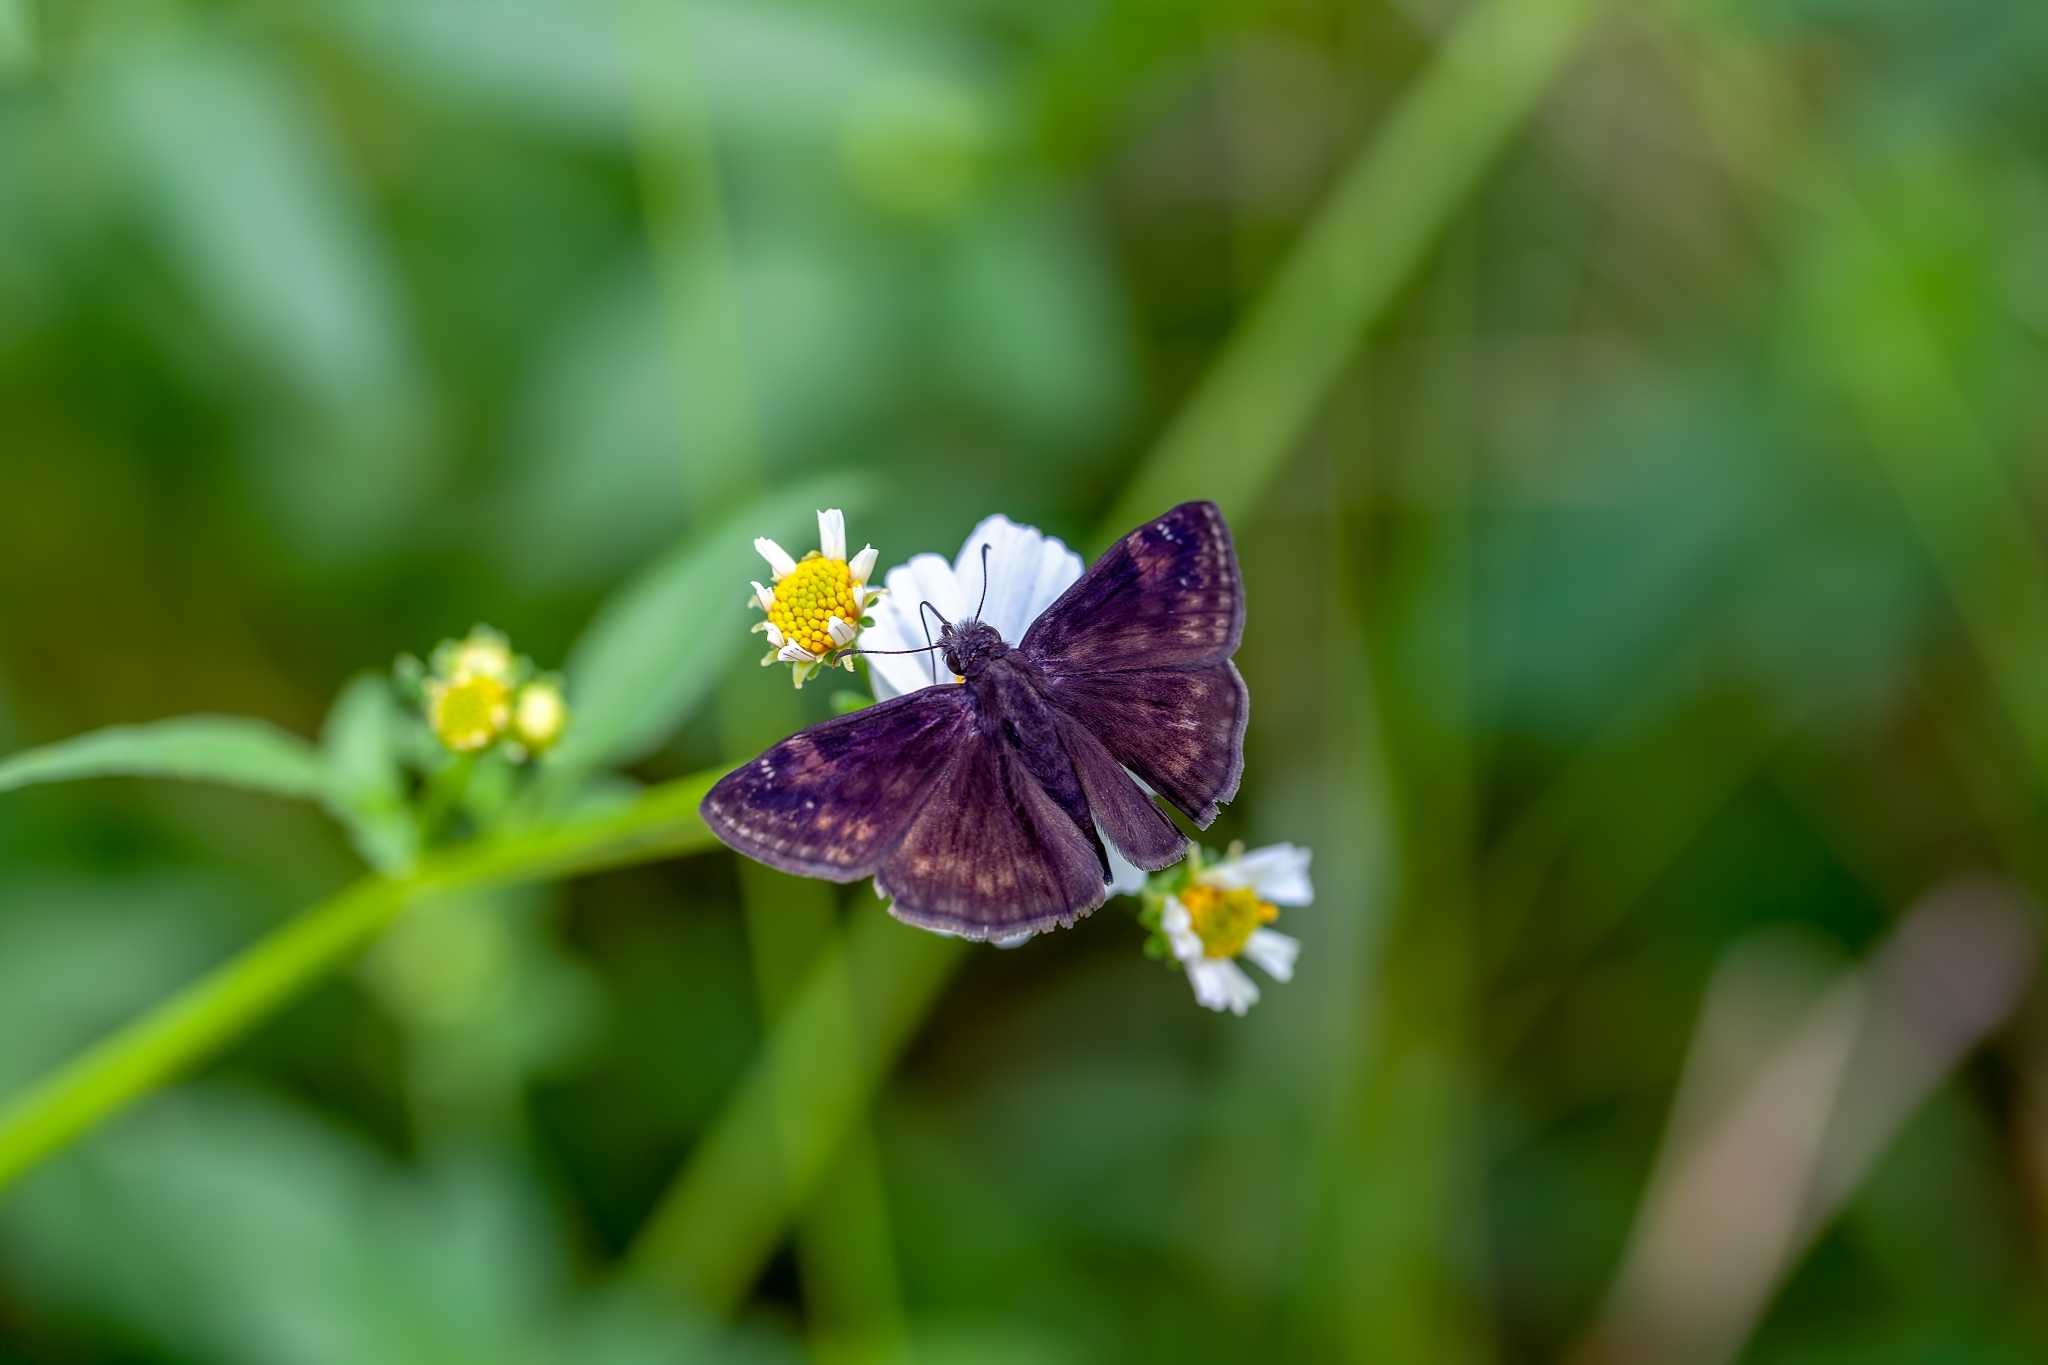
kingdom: Animalia
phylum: Arthropoda
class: Insecta
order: Lepidoptera
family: Hesperiidae
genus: Erynnis
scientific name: Erynnis zarucco
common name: Zarucco duskywing
